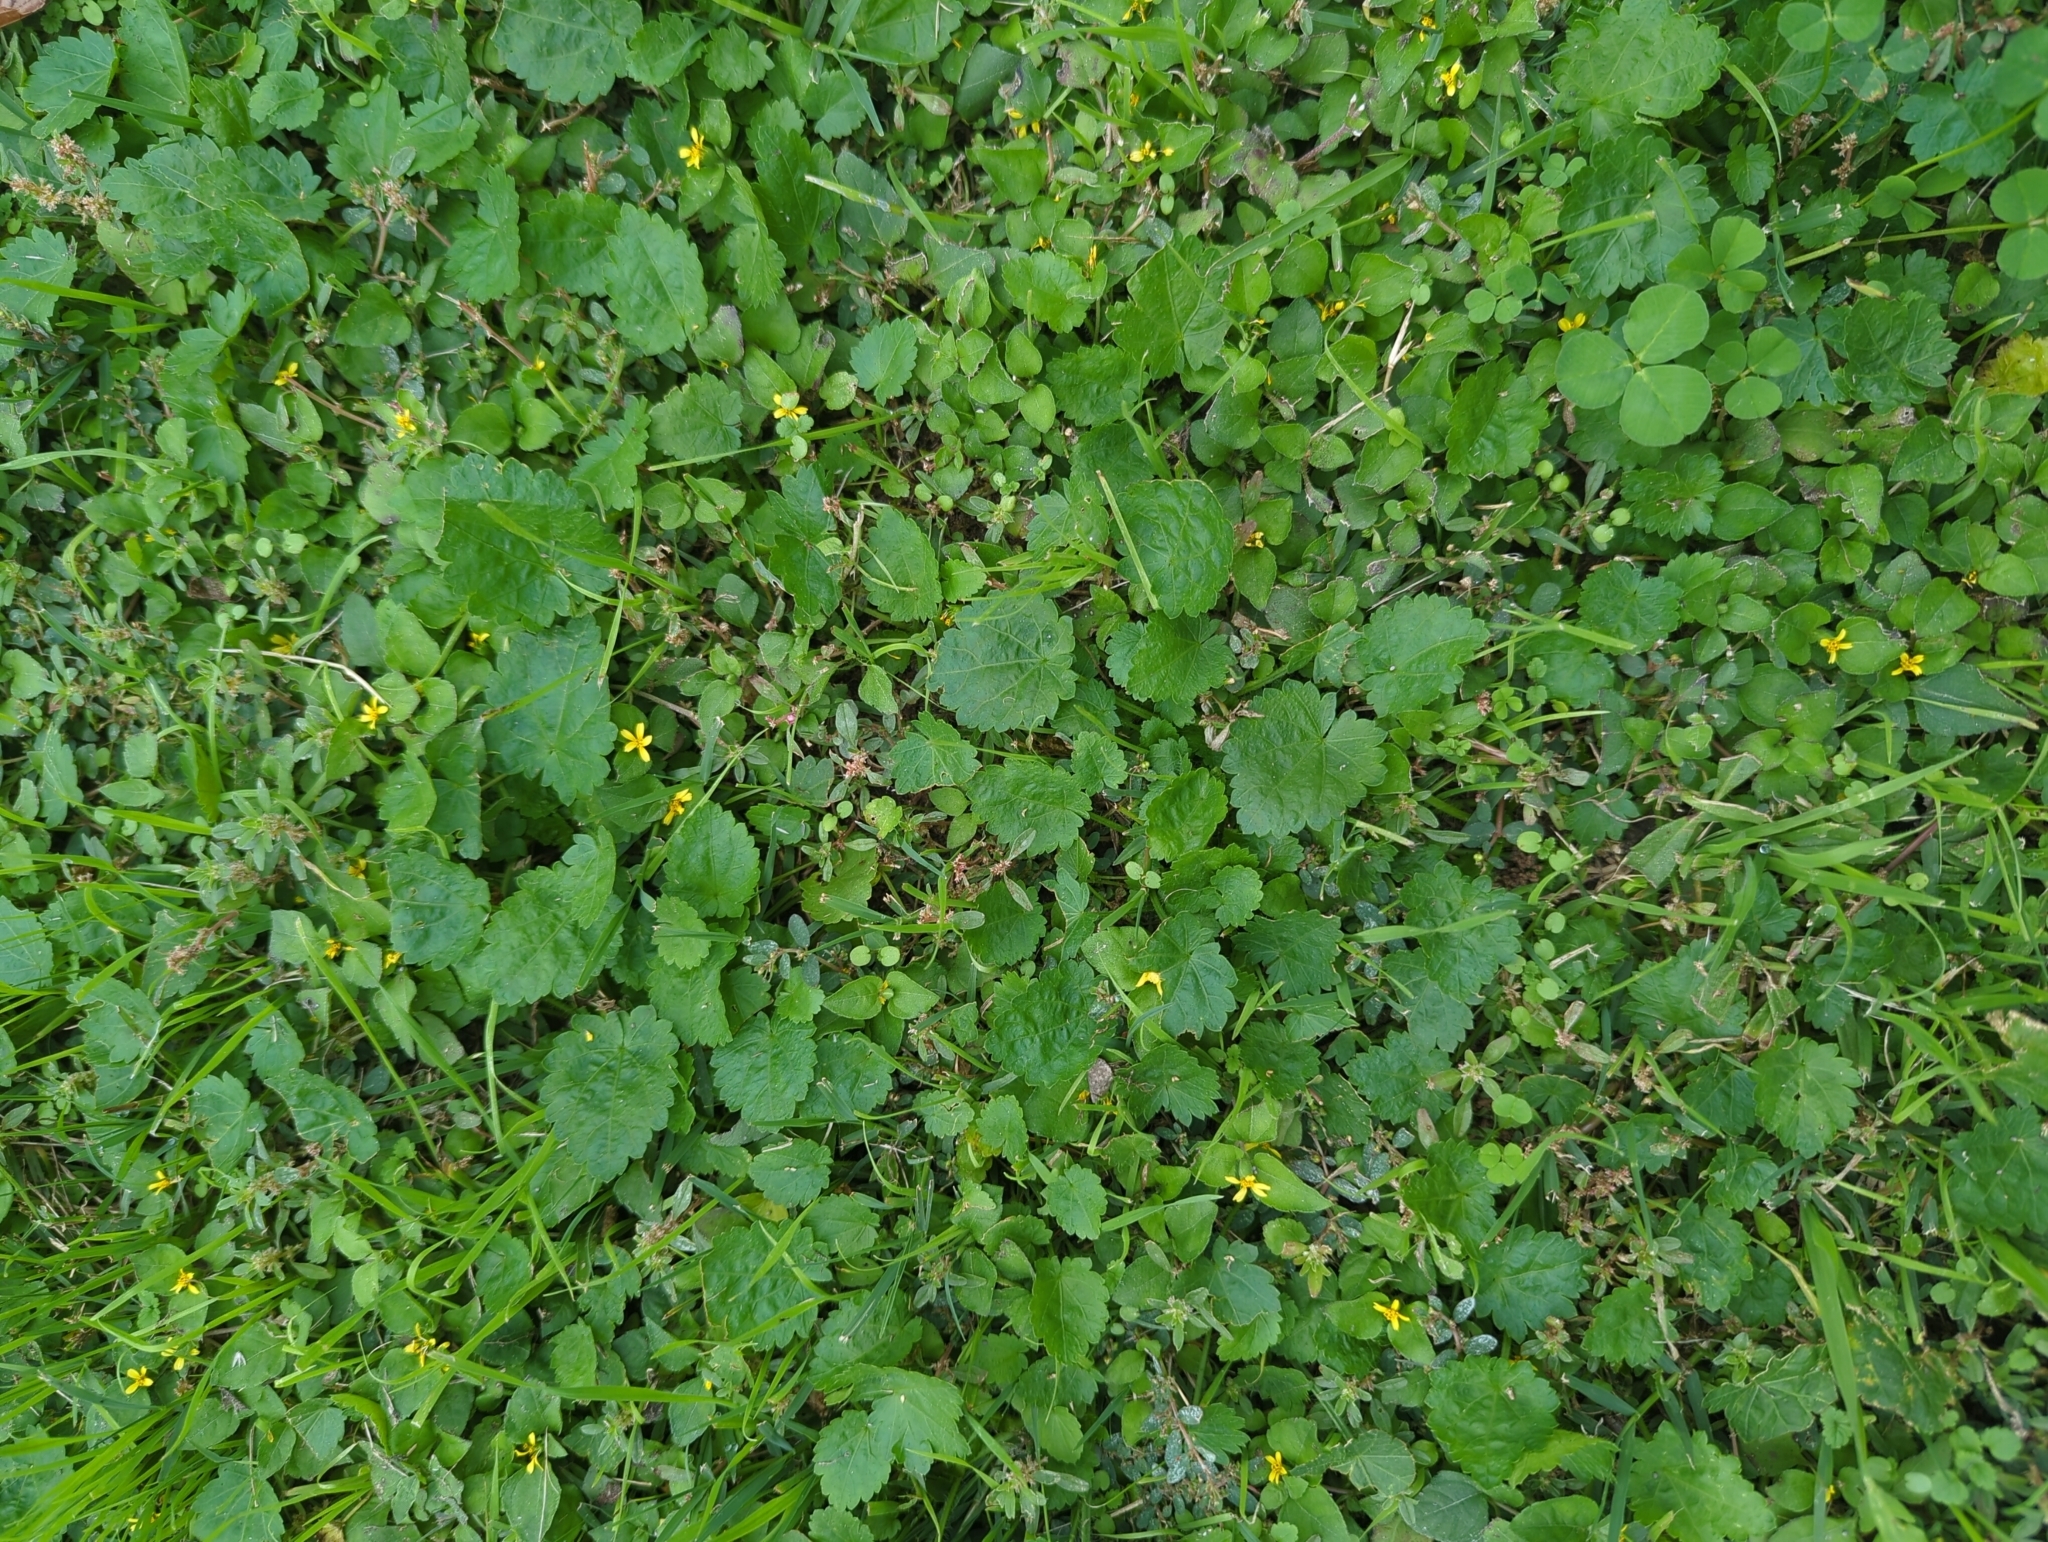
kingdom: Plantae
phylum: Tracheophyta
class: Magnoliopsida
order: Malvales
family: Malvaceae
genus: Modiola
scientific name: Modiola caroliniana
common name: Carolina bristlemallow
